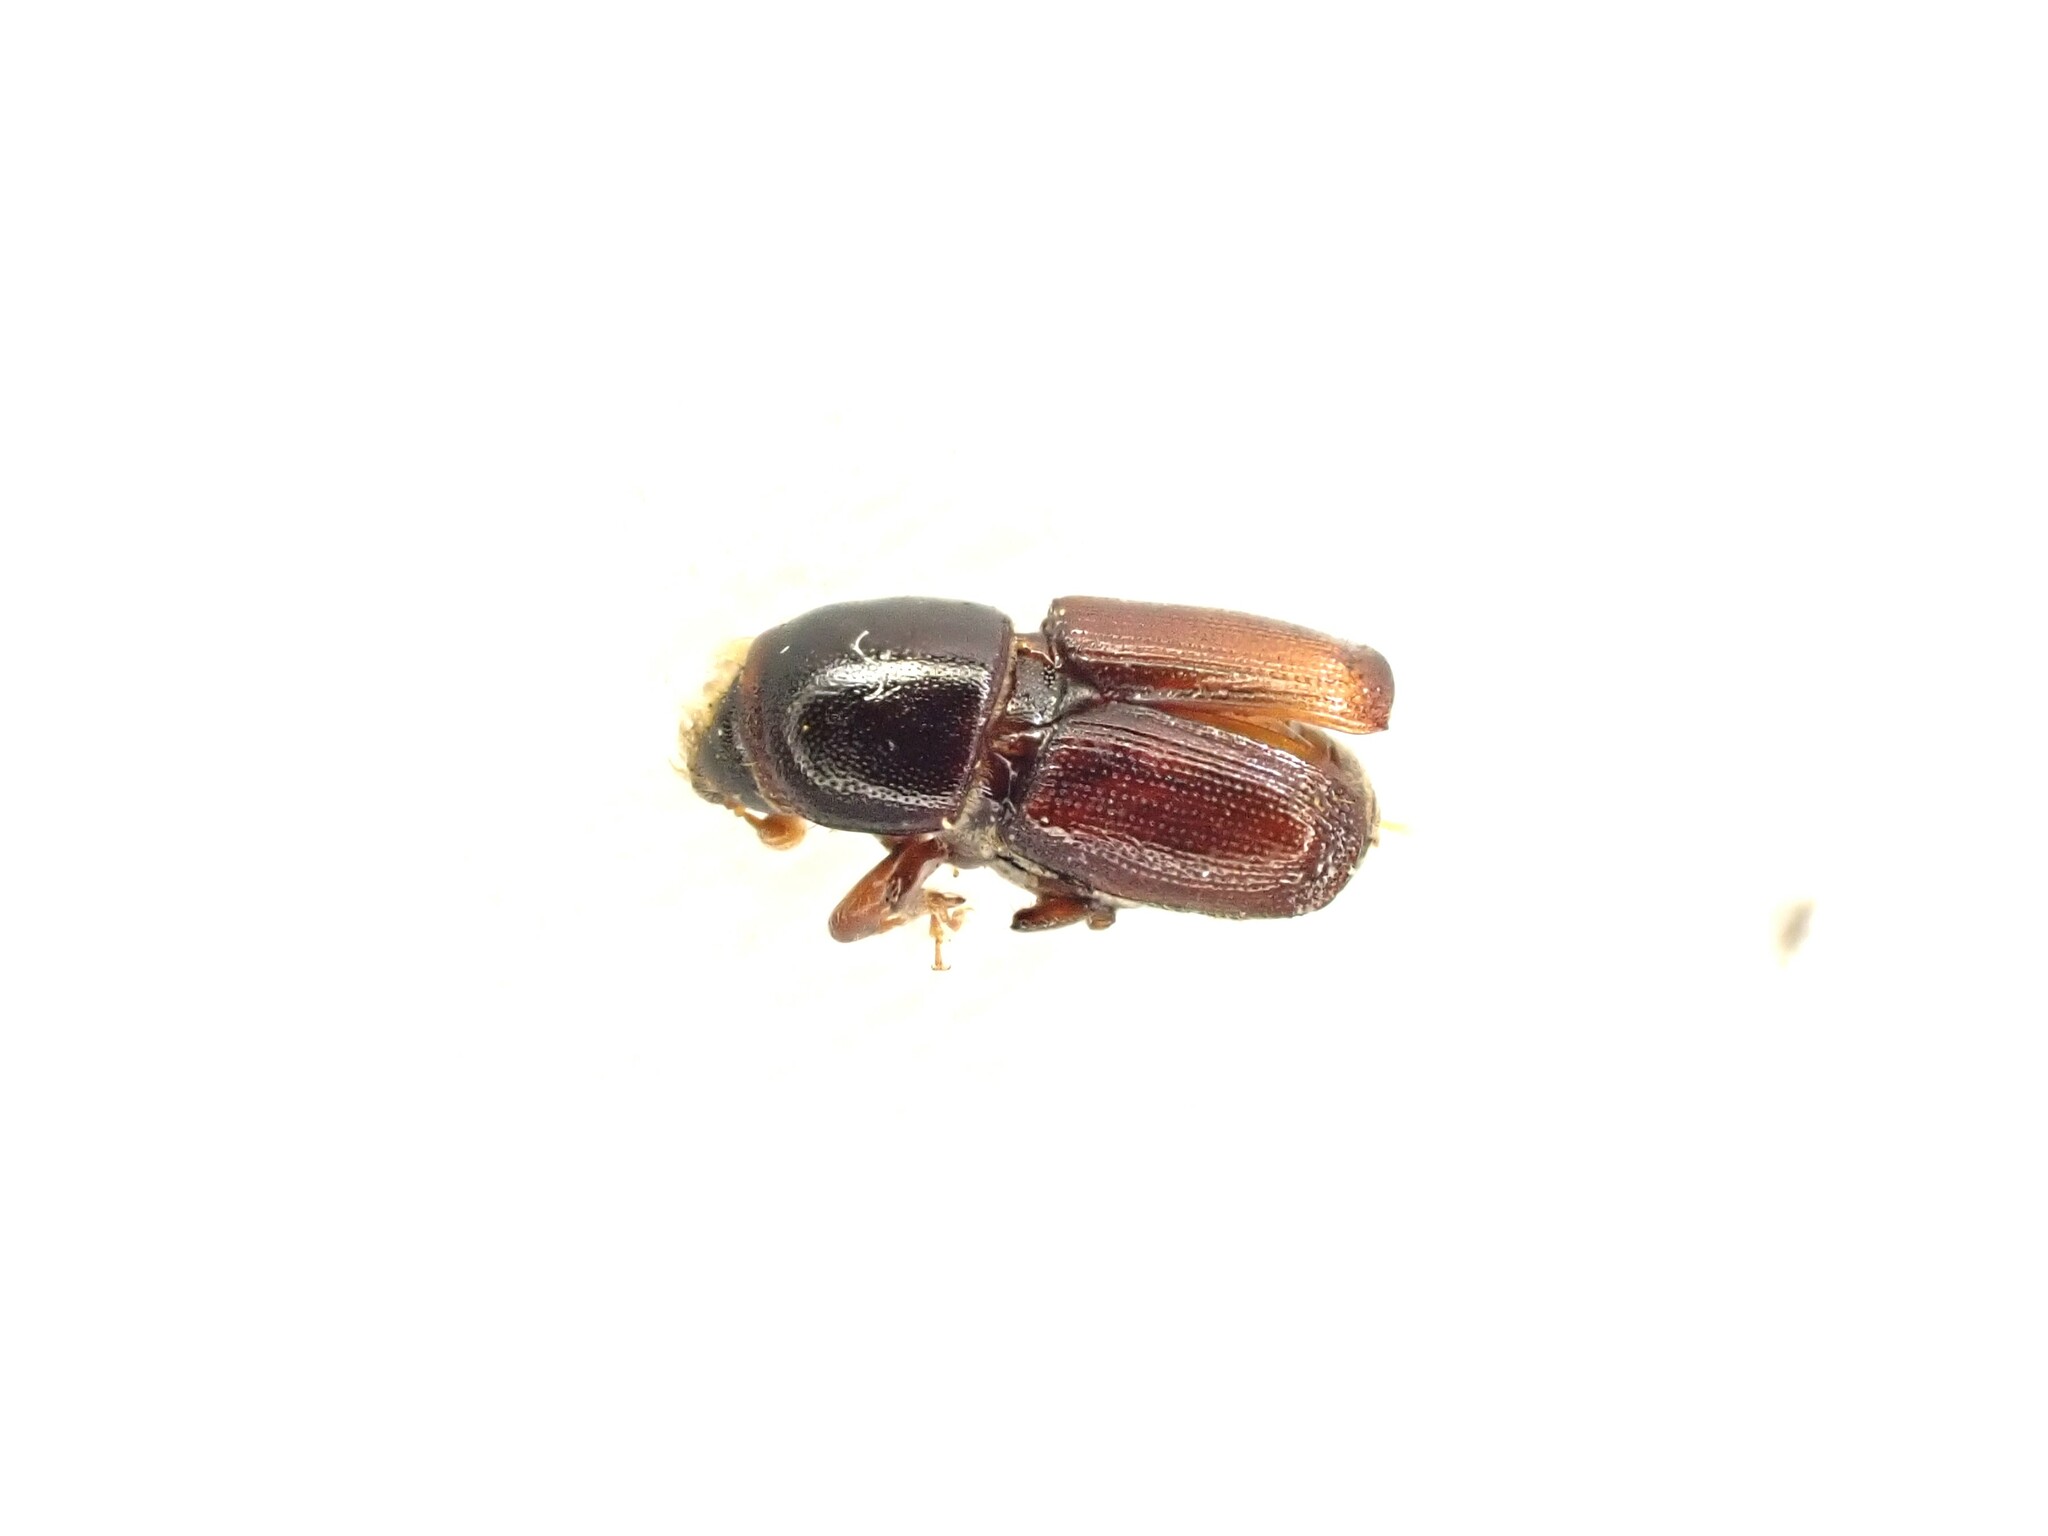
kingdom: Animalia
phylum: Arthropoda
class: Insecta
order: Coleoptera
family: Curculionidae
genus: Scolytus
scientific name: Scolytus multistriatus
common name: European elm bark beetle
